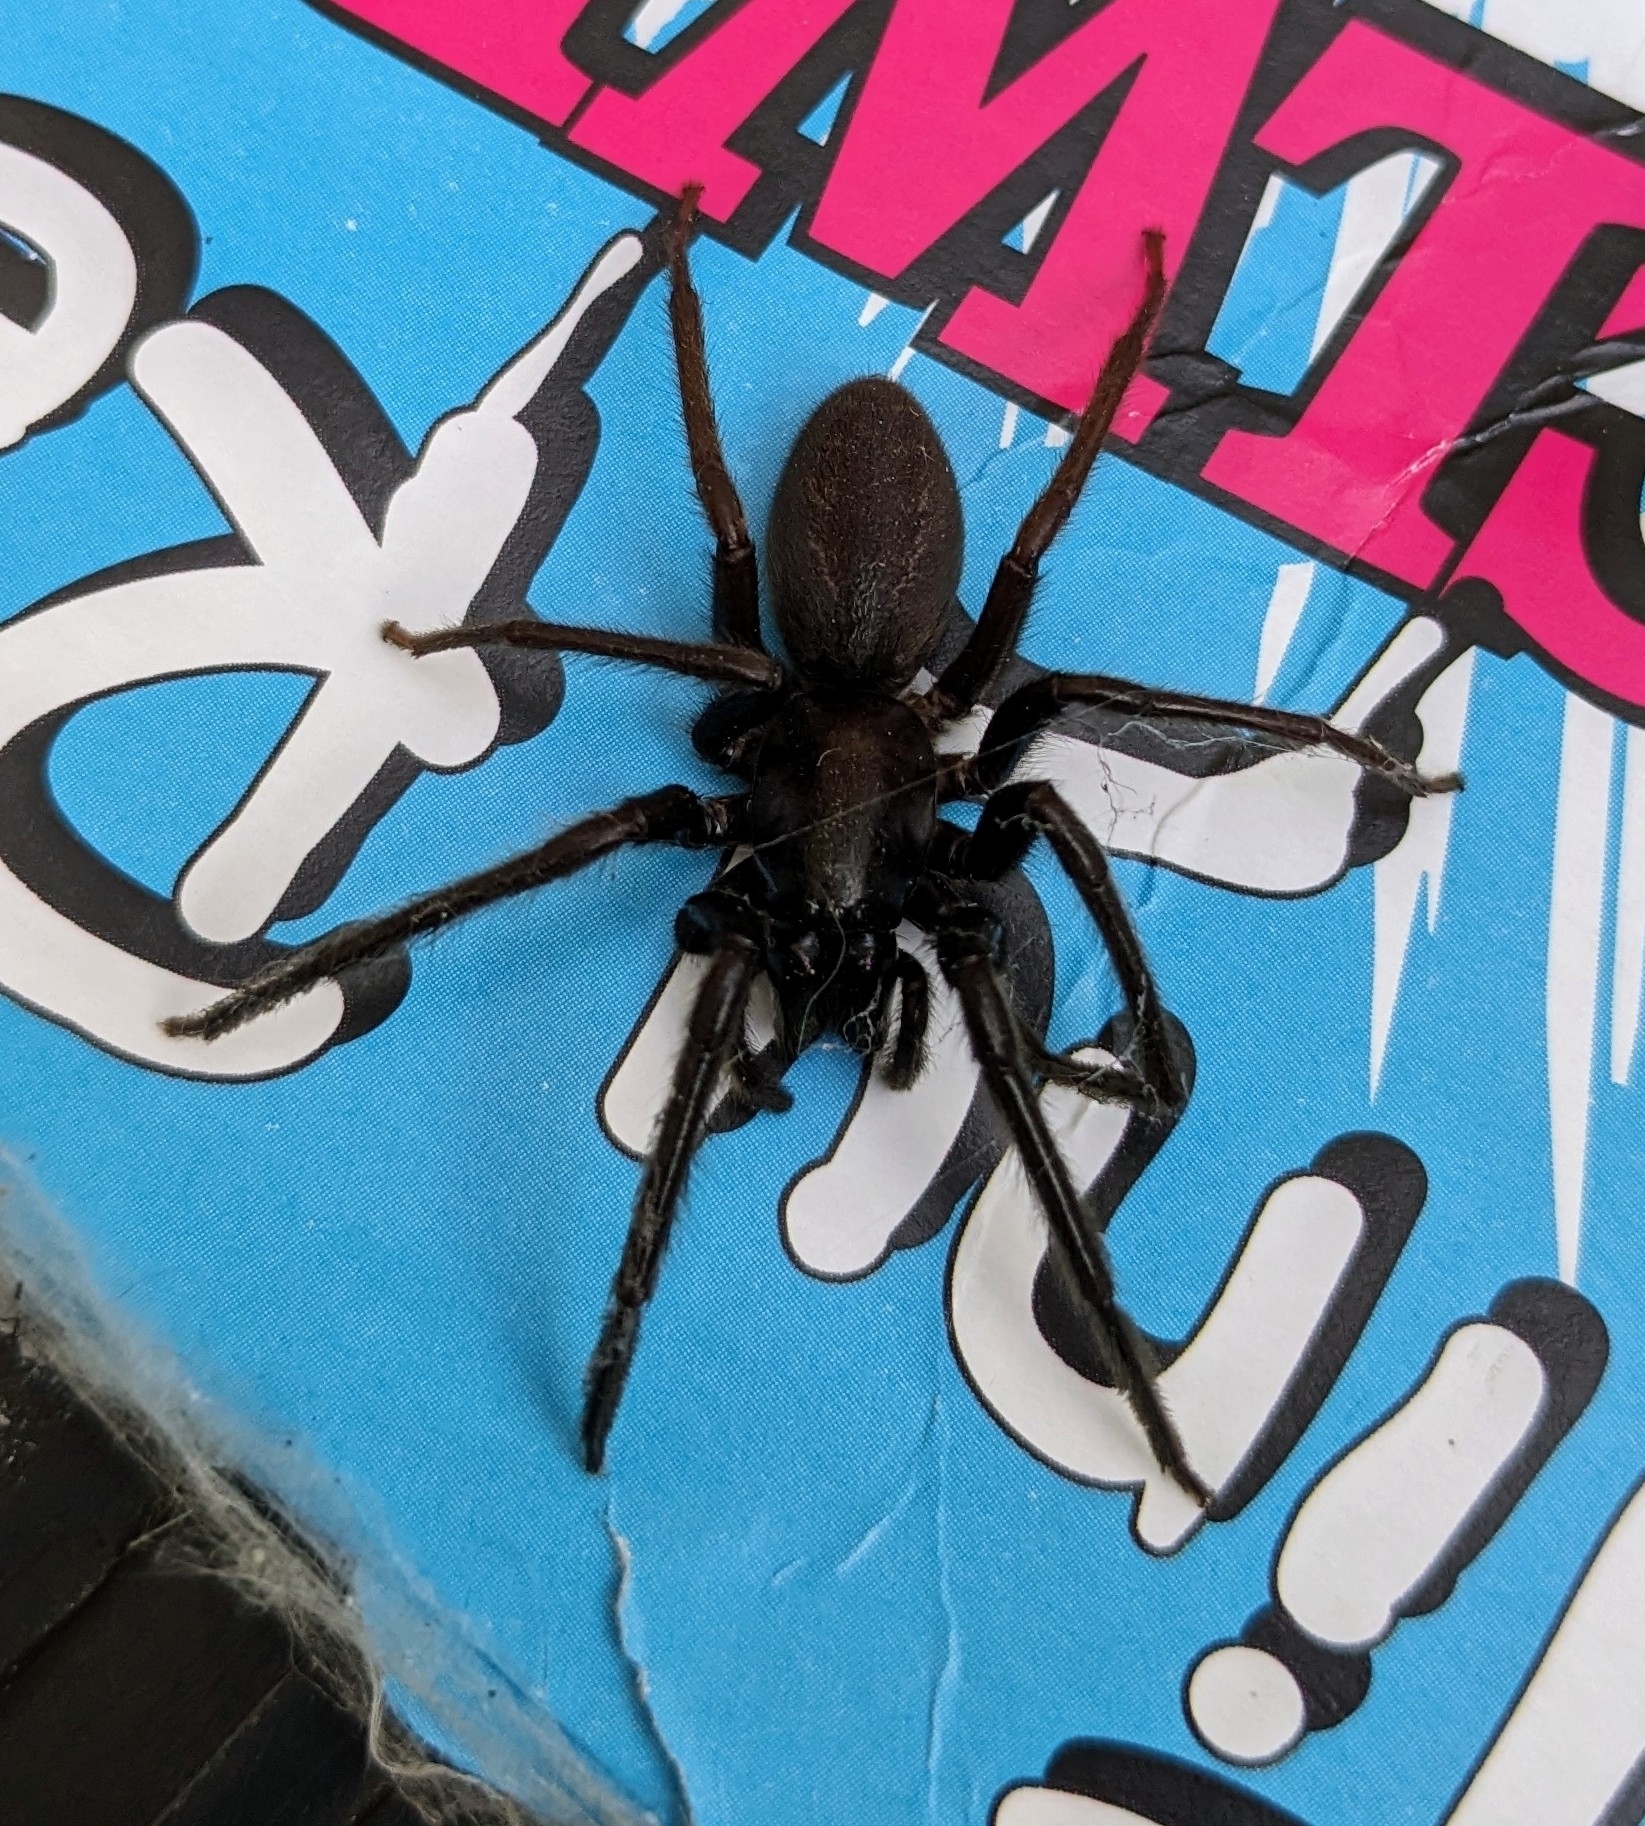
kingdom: Animalia
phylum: Arthropoda
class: Arachnida
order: Araneae
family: Segestriidae
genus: Segestria
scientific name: Segestria florentina
